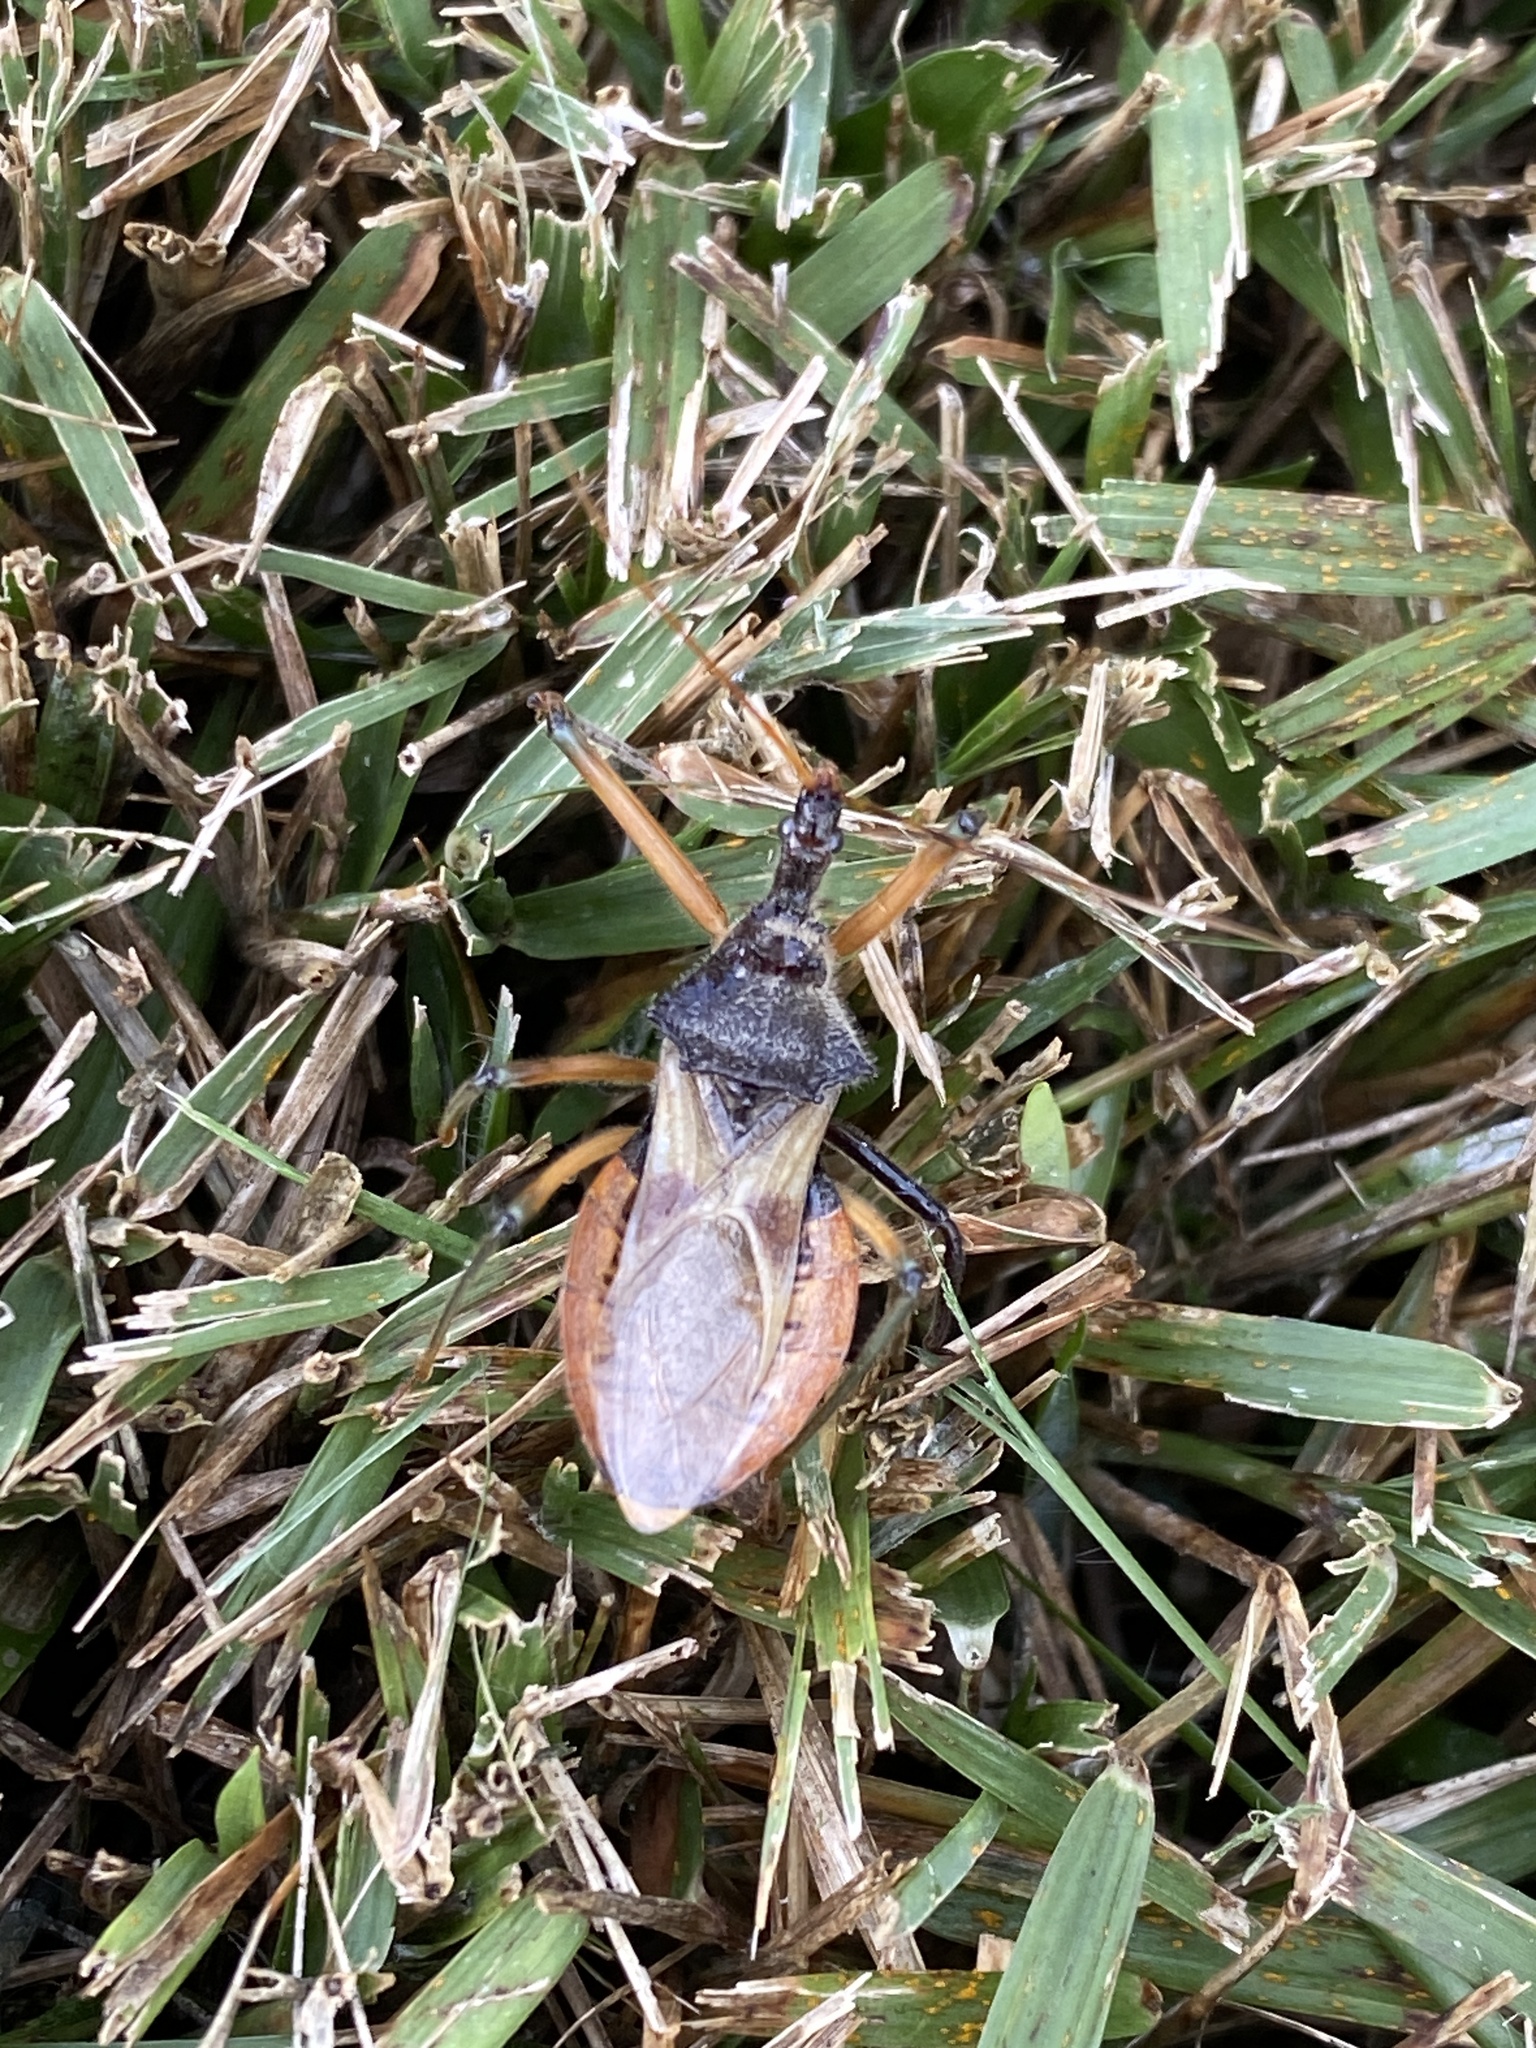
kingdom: Animalia
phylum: Arthropoda
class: Insecta
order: Hemiptera
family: Reduviidae
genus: Pristhesancus
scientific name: Pristhesancus plagipennis
